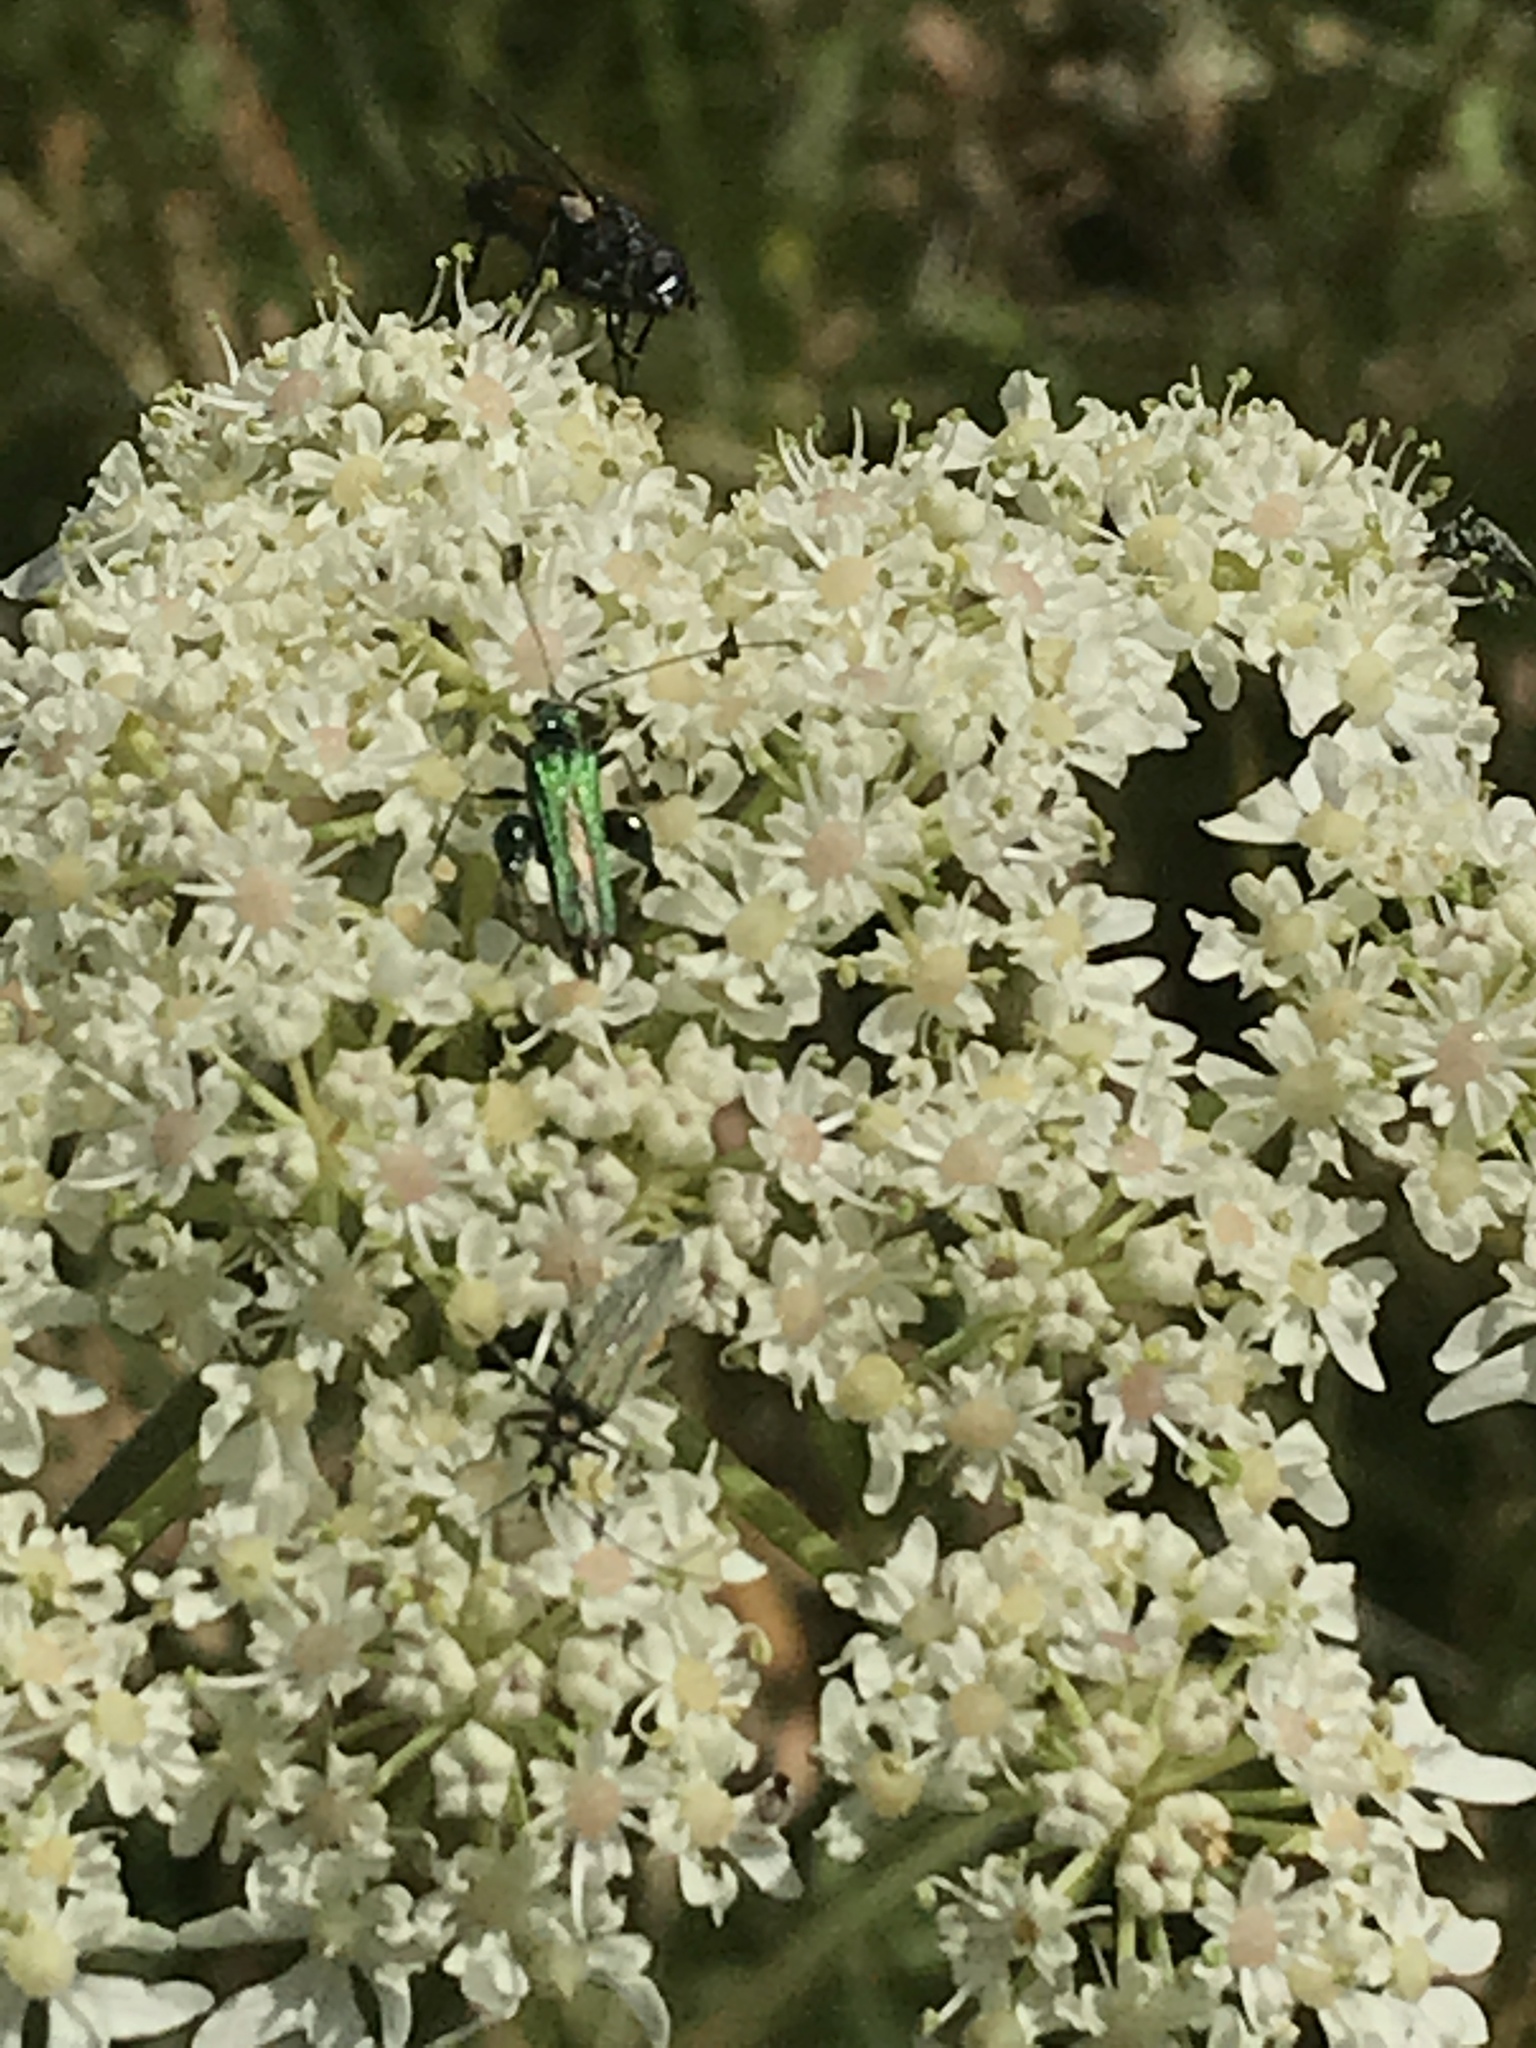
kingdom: Animalia
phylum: Arthropoda
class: Insecta
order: Coleoptera
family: Oedemeridae
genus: Oedemera
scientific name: Oedemera nobilis
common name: Swollen-thighed beetle
